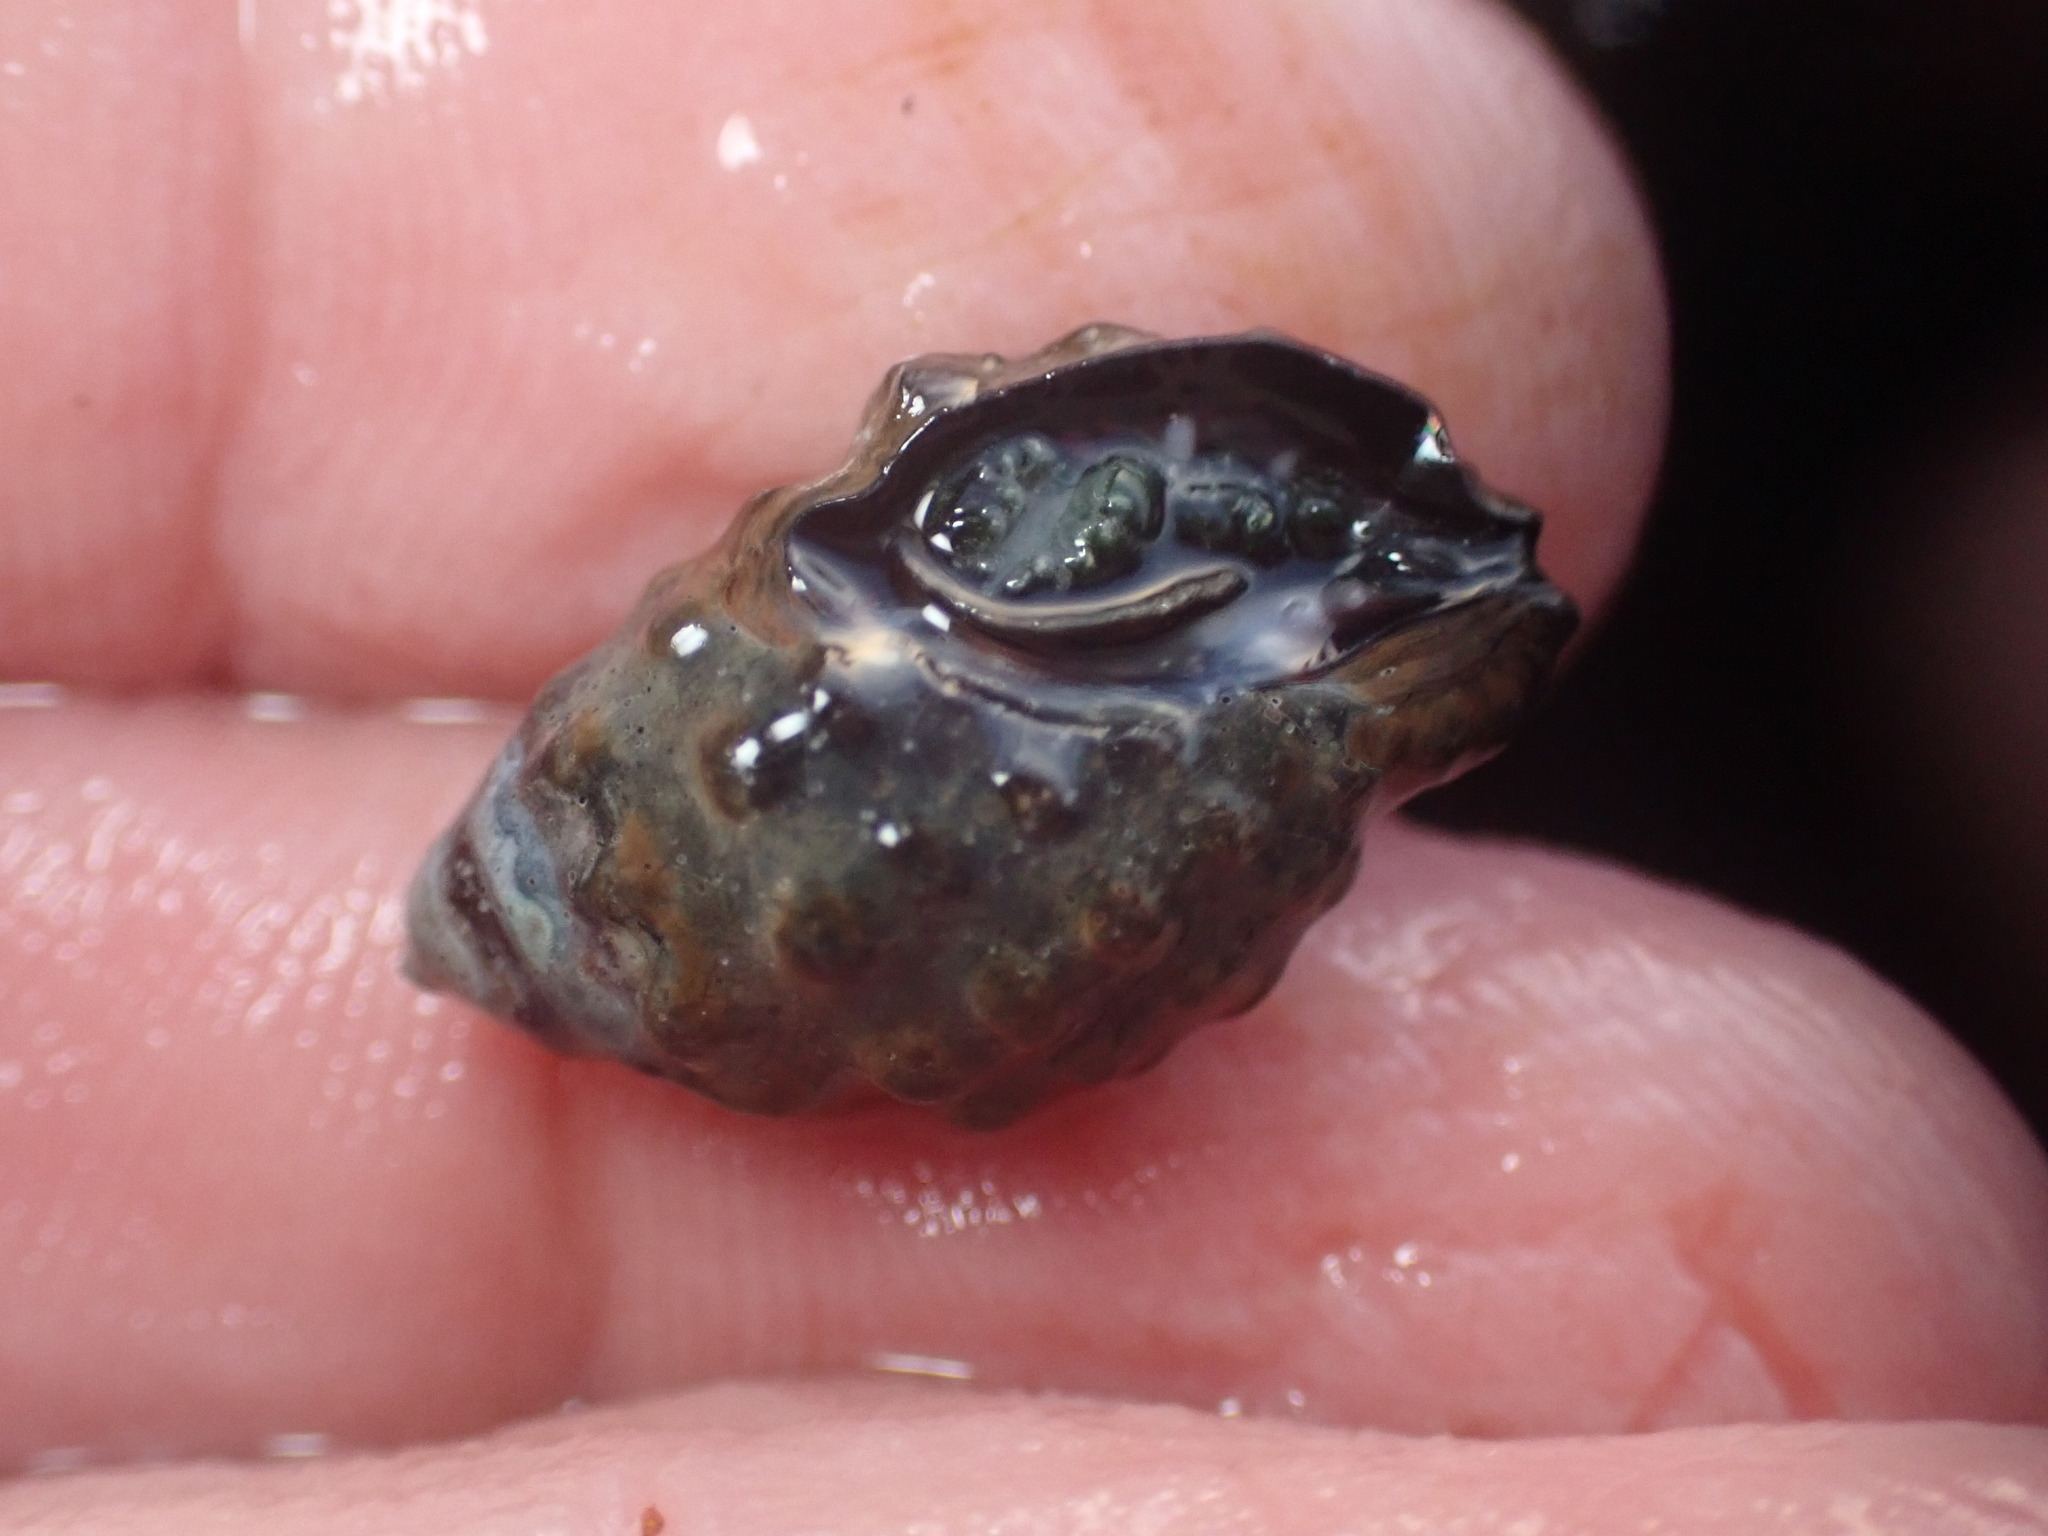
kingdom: Animalia
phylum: Mollusca
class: Gastropoda
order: Neogastropoda
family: Muricidae
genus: Tenguella
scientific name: Tenguella granulata
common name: Granular drupe
